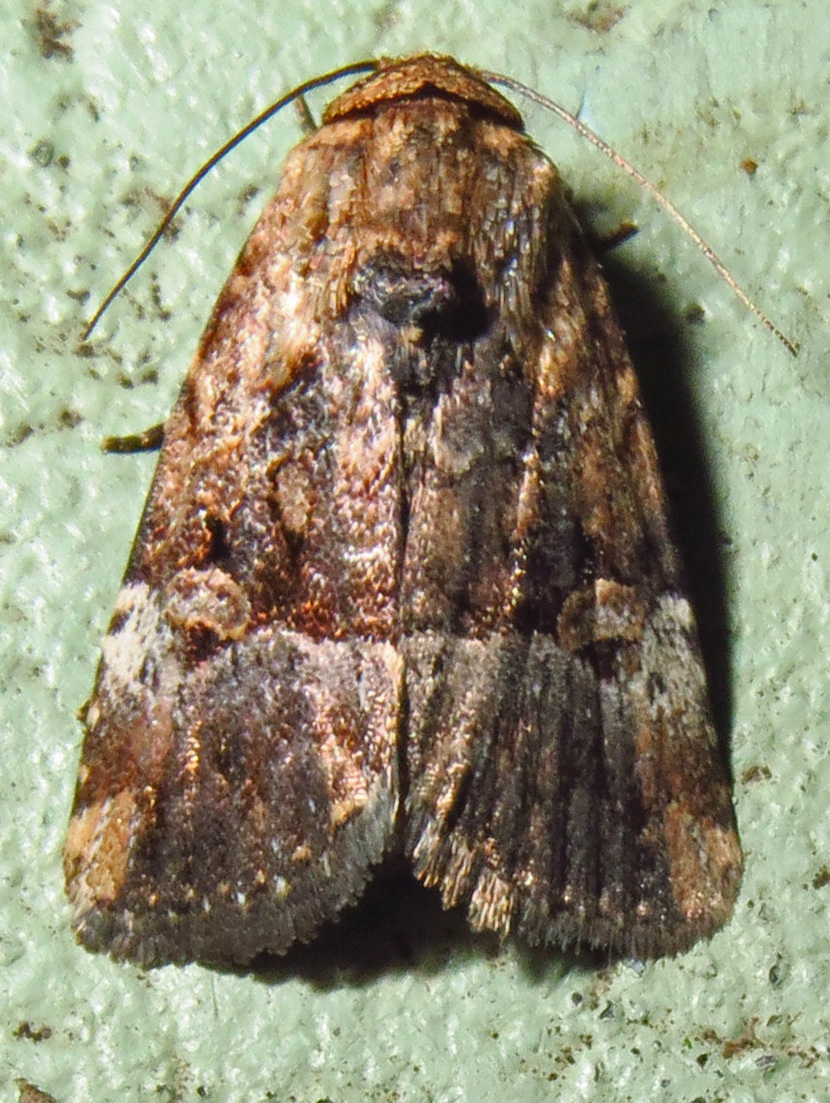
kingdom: Animalia
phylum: Arthropoda
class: Insecta
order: Lepidoptera
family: Noctuidae
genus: Elaphria
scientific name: Elaphria chalcedonia
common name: Chalcedony midget
